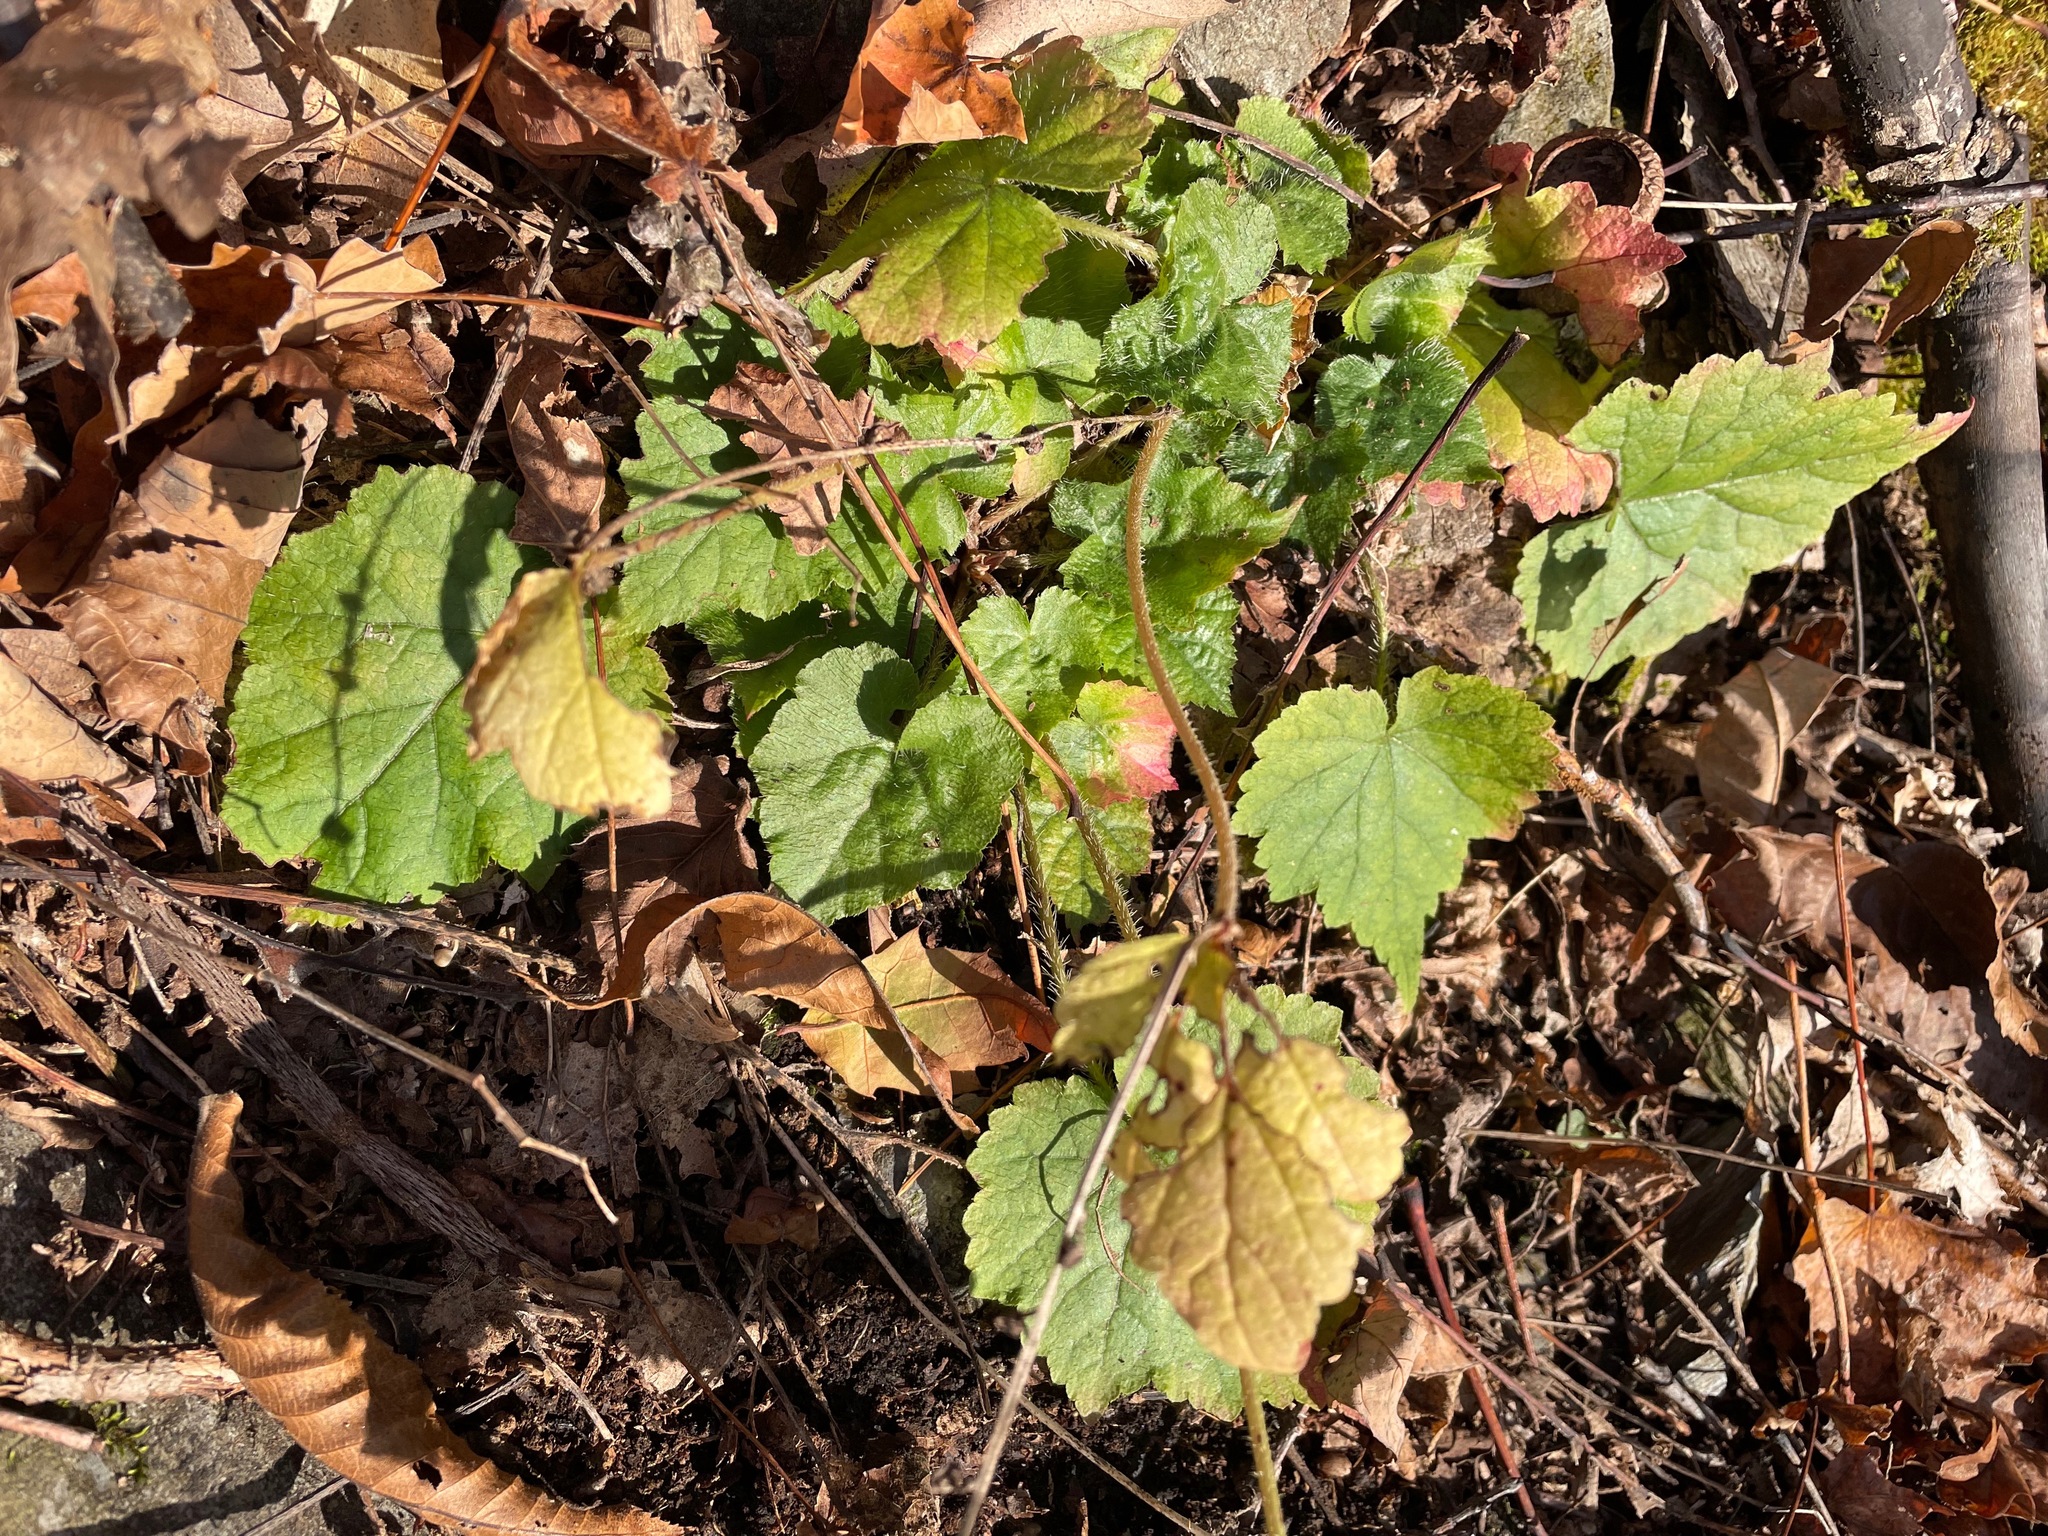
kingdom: Plantae
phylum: Tracheophyta
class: Magnoliopsida
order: Saxifragales
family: Saxifragaceae
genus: Mitella
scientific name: Mitella diphylla
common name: Coolwort
